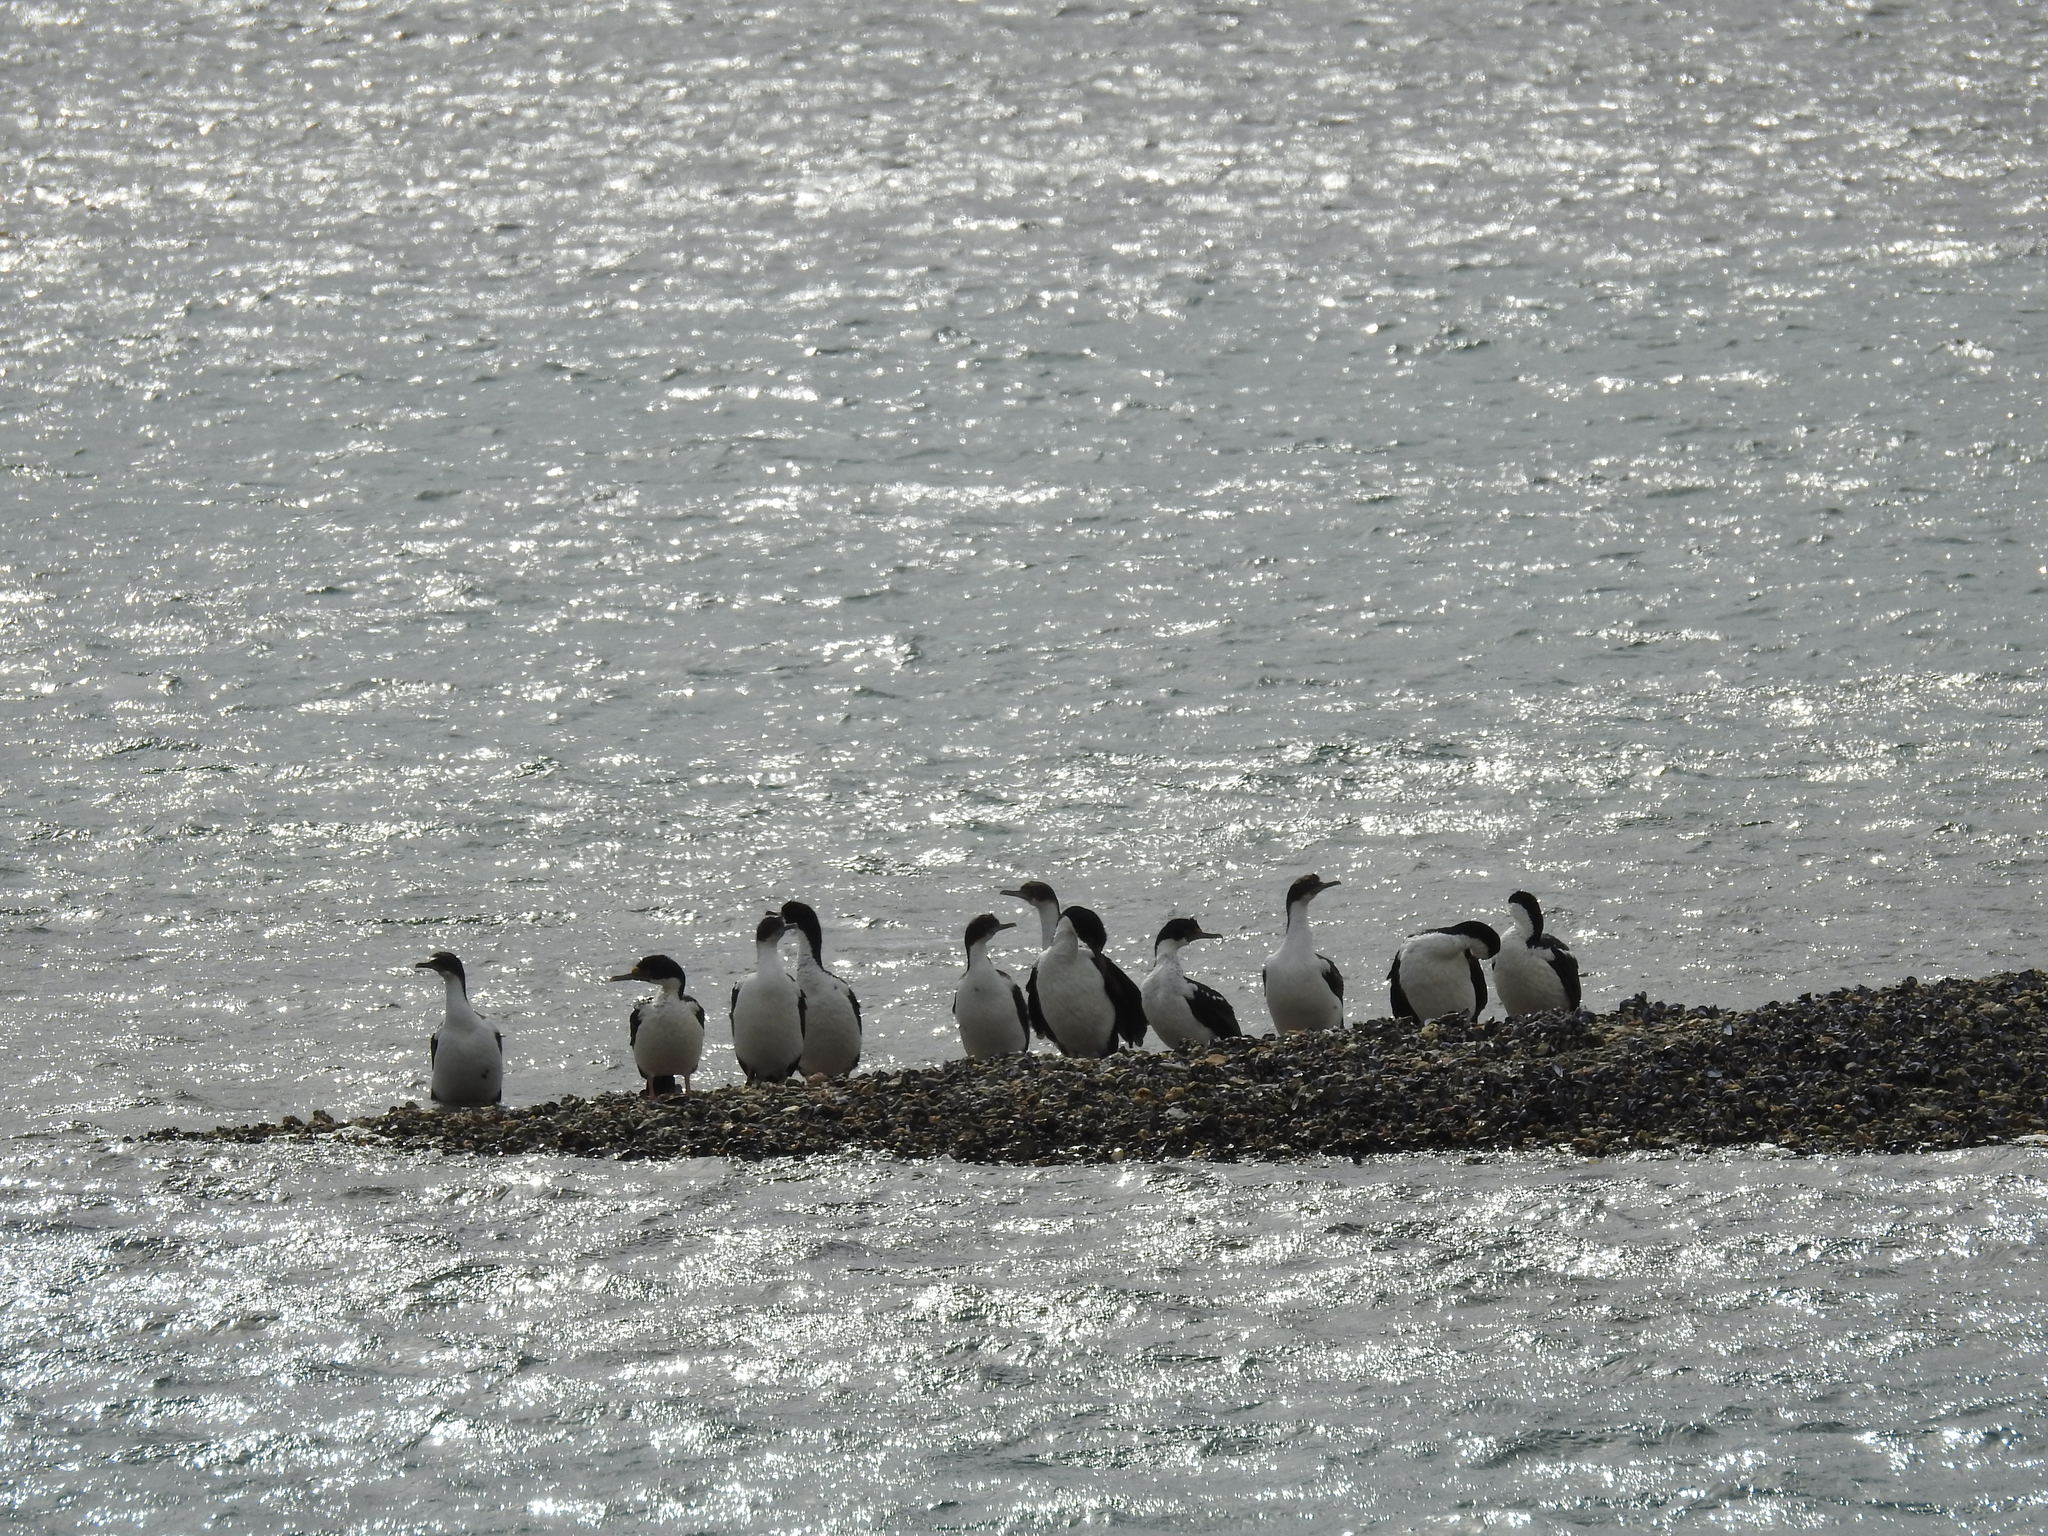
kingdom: Animalia
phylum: Chordata
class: Aves
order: Suliformes
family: Phalacrocoracidae
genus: Leucocarbo
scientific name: Leucocarbo atriceps
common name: Imperial shag
